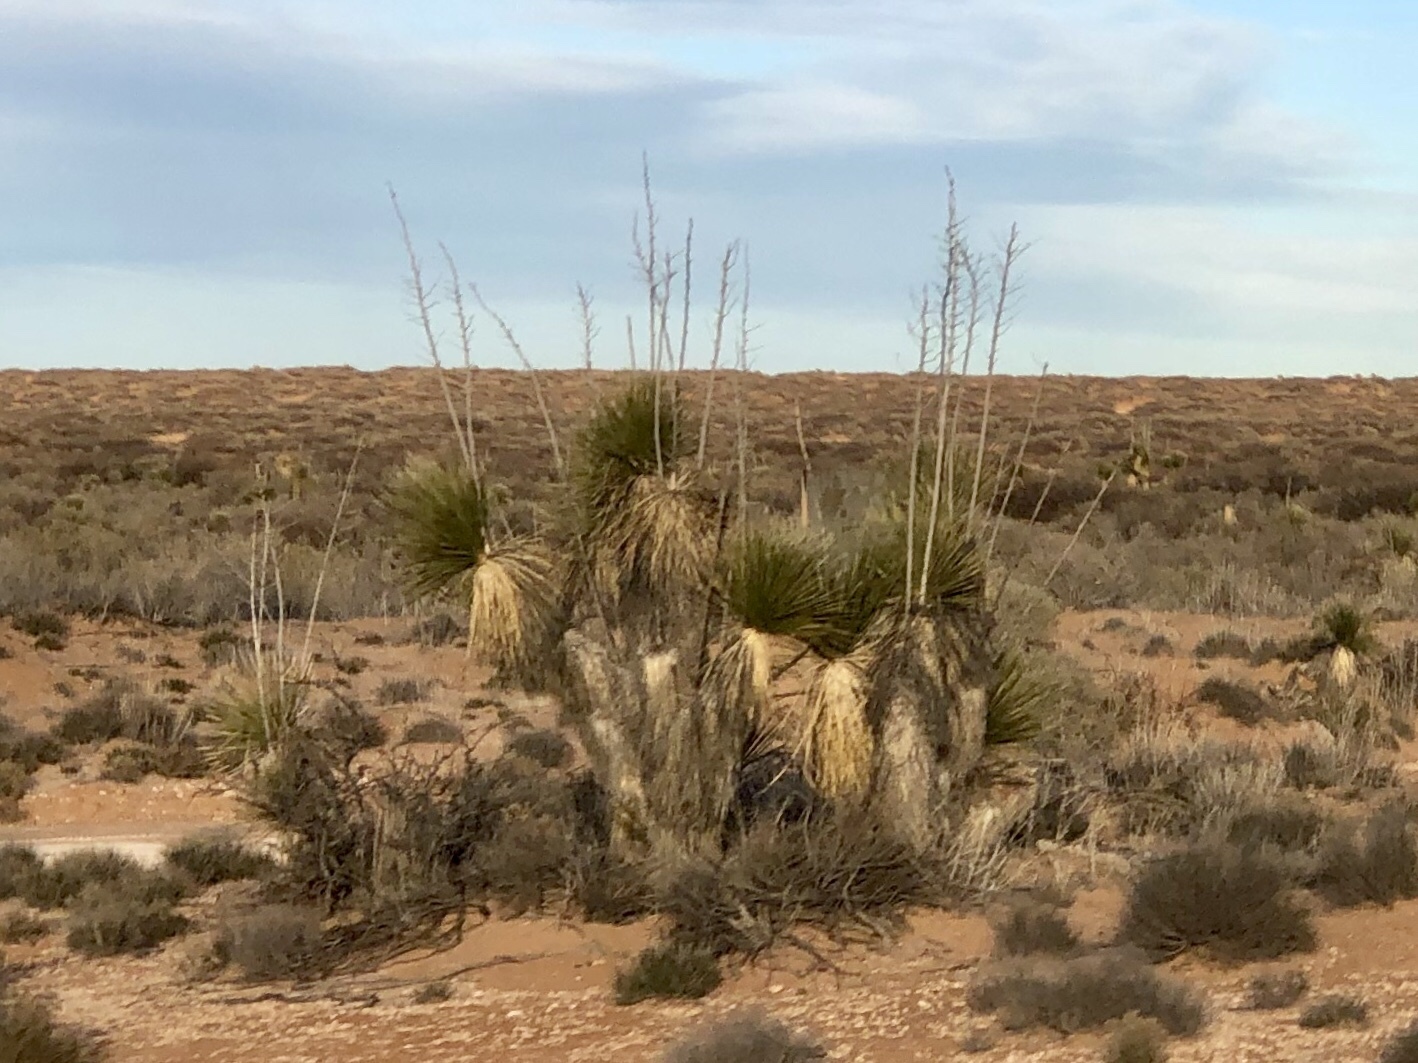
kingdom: Plantae
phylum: Tracheophyta
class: Liliopsida
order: Asparagales
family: Asparagaceae
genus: Yucca
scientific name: Yucca elata
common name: Palmella
